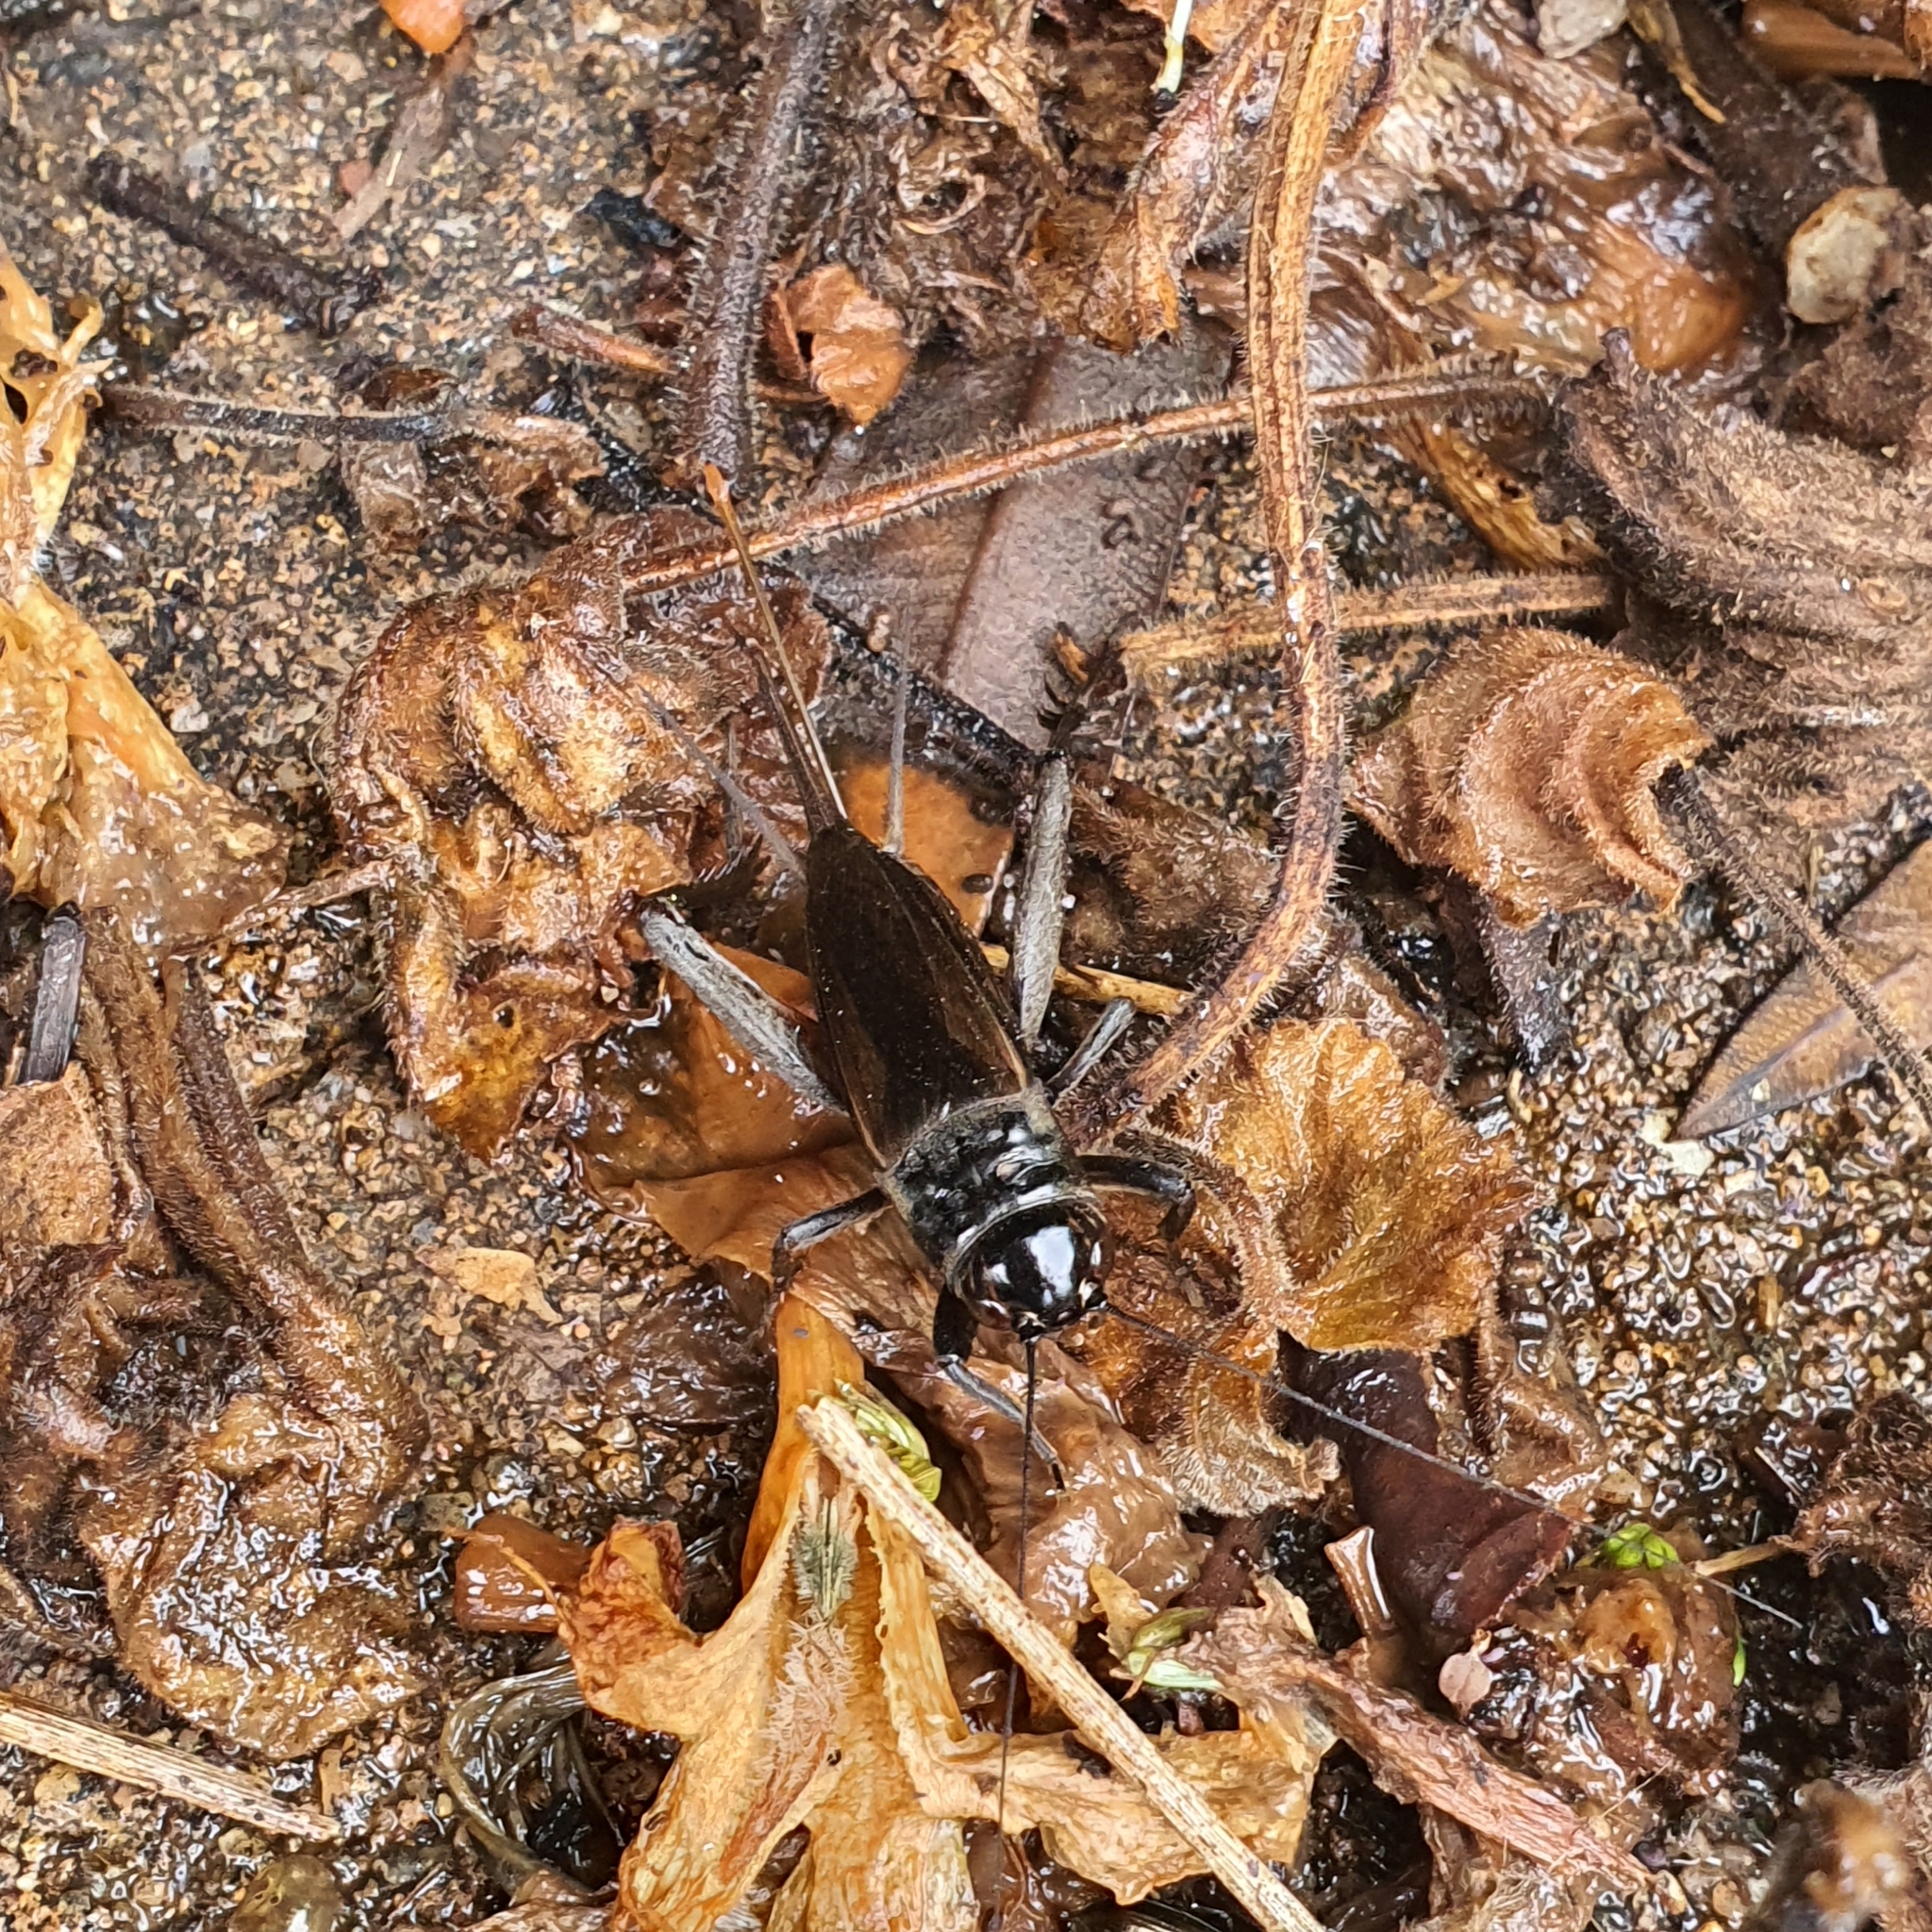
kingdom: Animalia
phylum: Arthropoda
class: Insecta
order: Orthoptera
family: Gryllidae
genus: Teleogryllus
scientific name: Teleogryllus commodus
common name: Black field cricket
